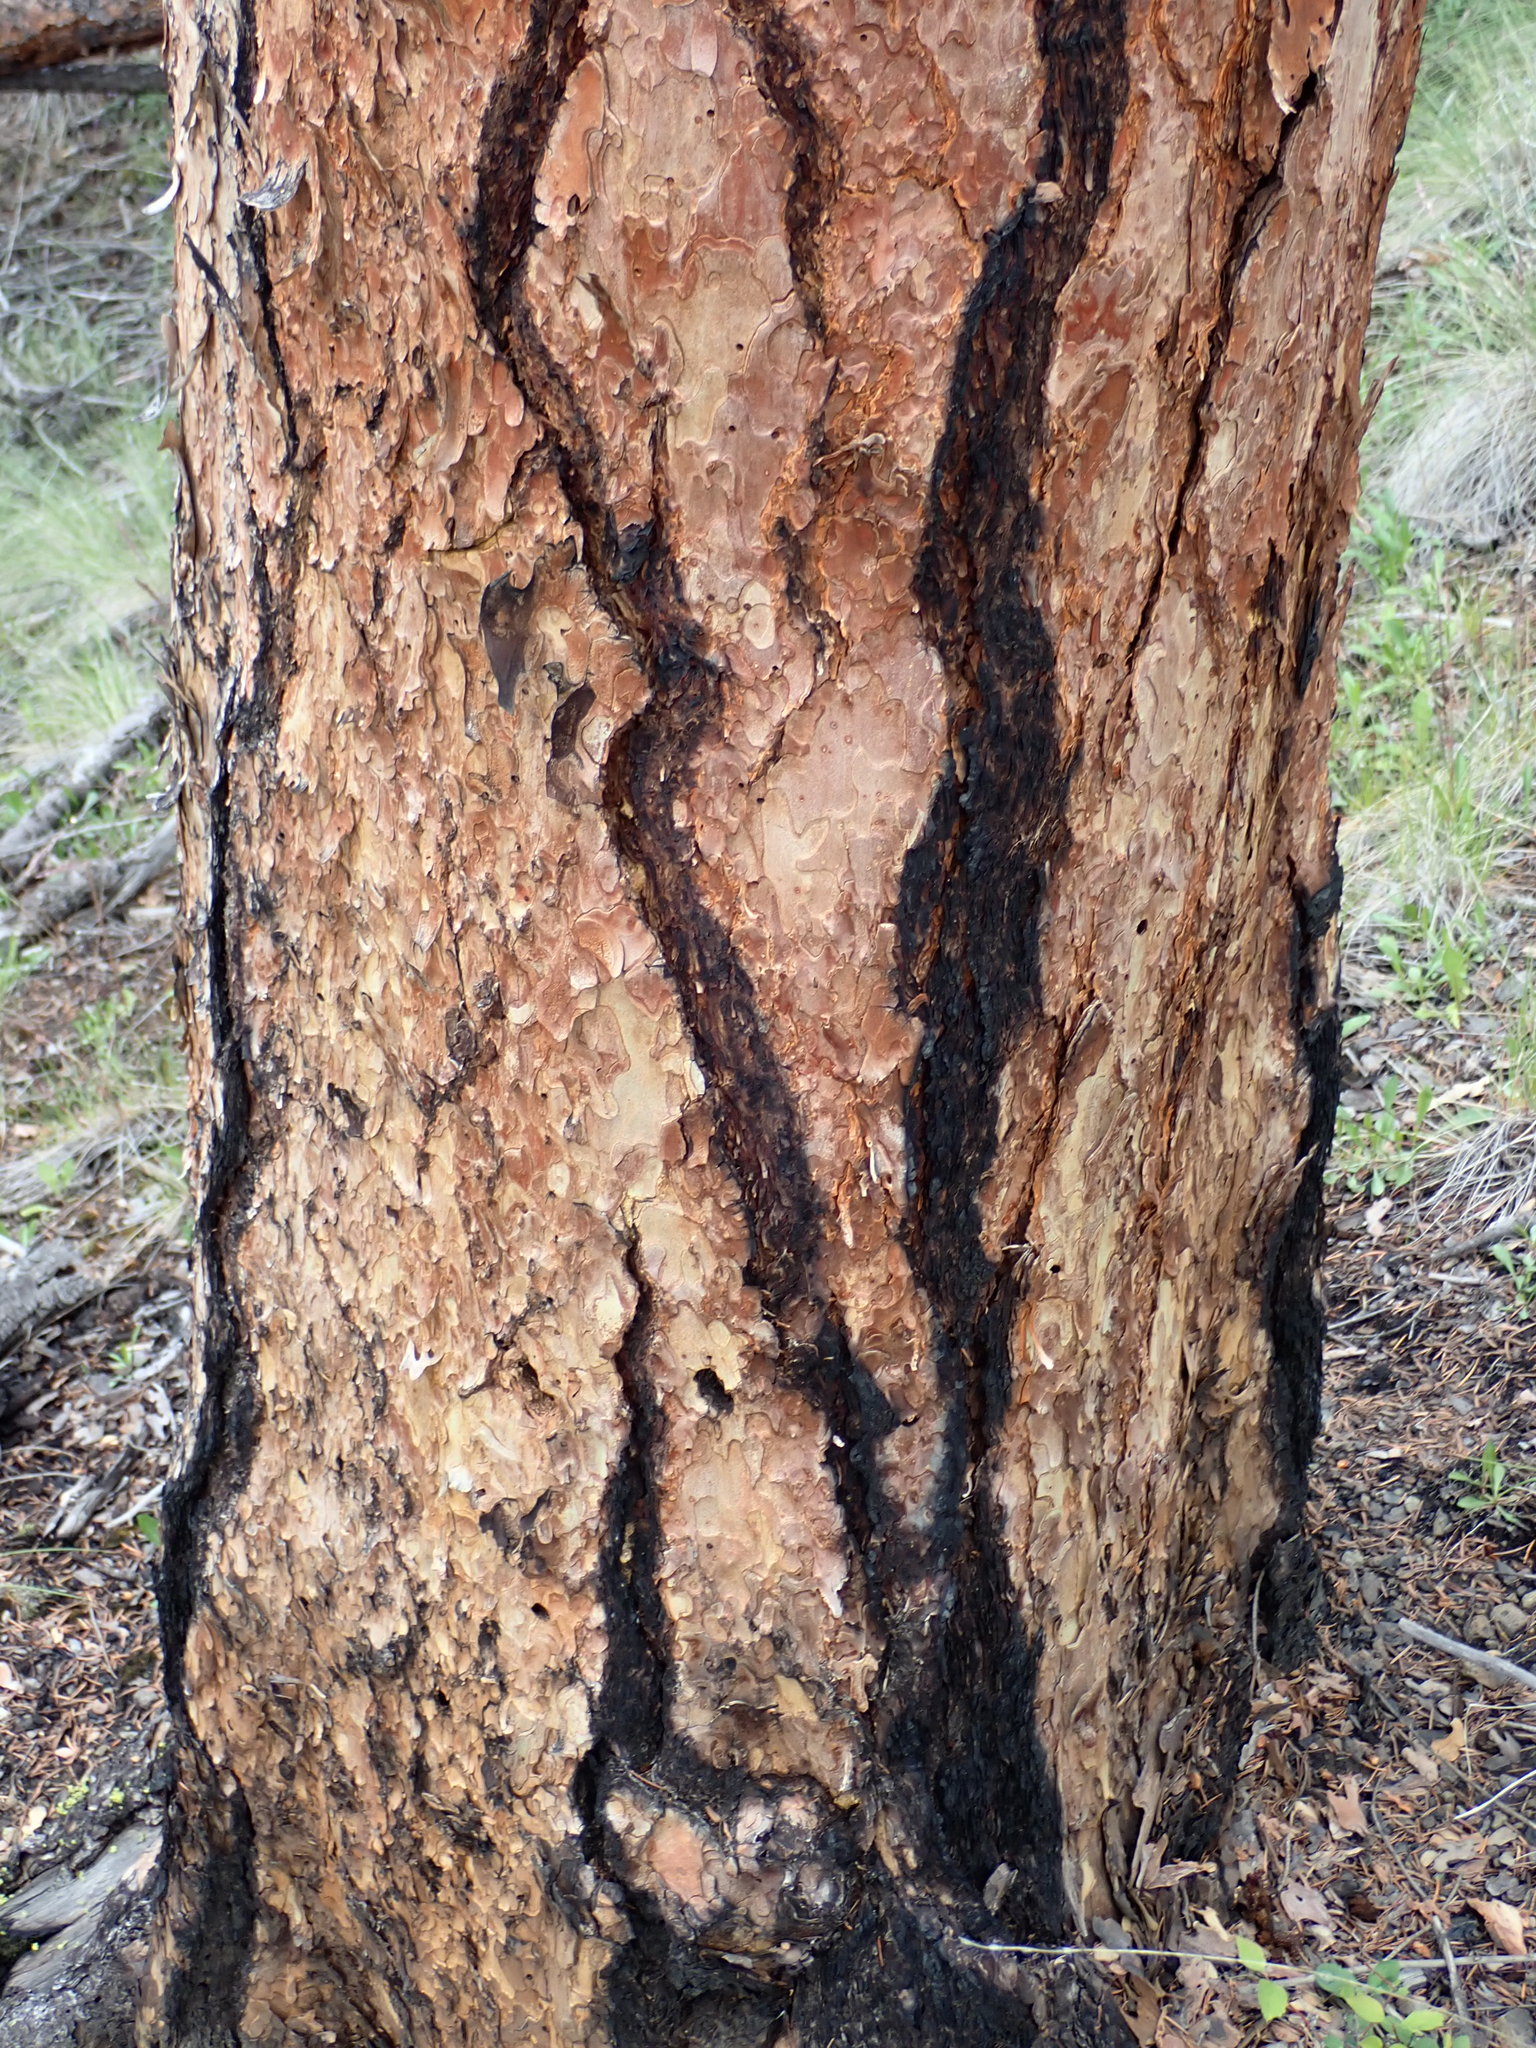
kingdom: Plantae
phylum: Tracheophyta
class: Pinopsida
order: Pinales
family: Pinaceae
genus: Pinus
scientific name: Pinus ponderosa
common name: Western yellow-pine
